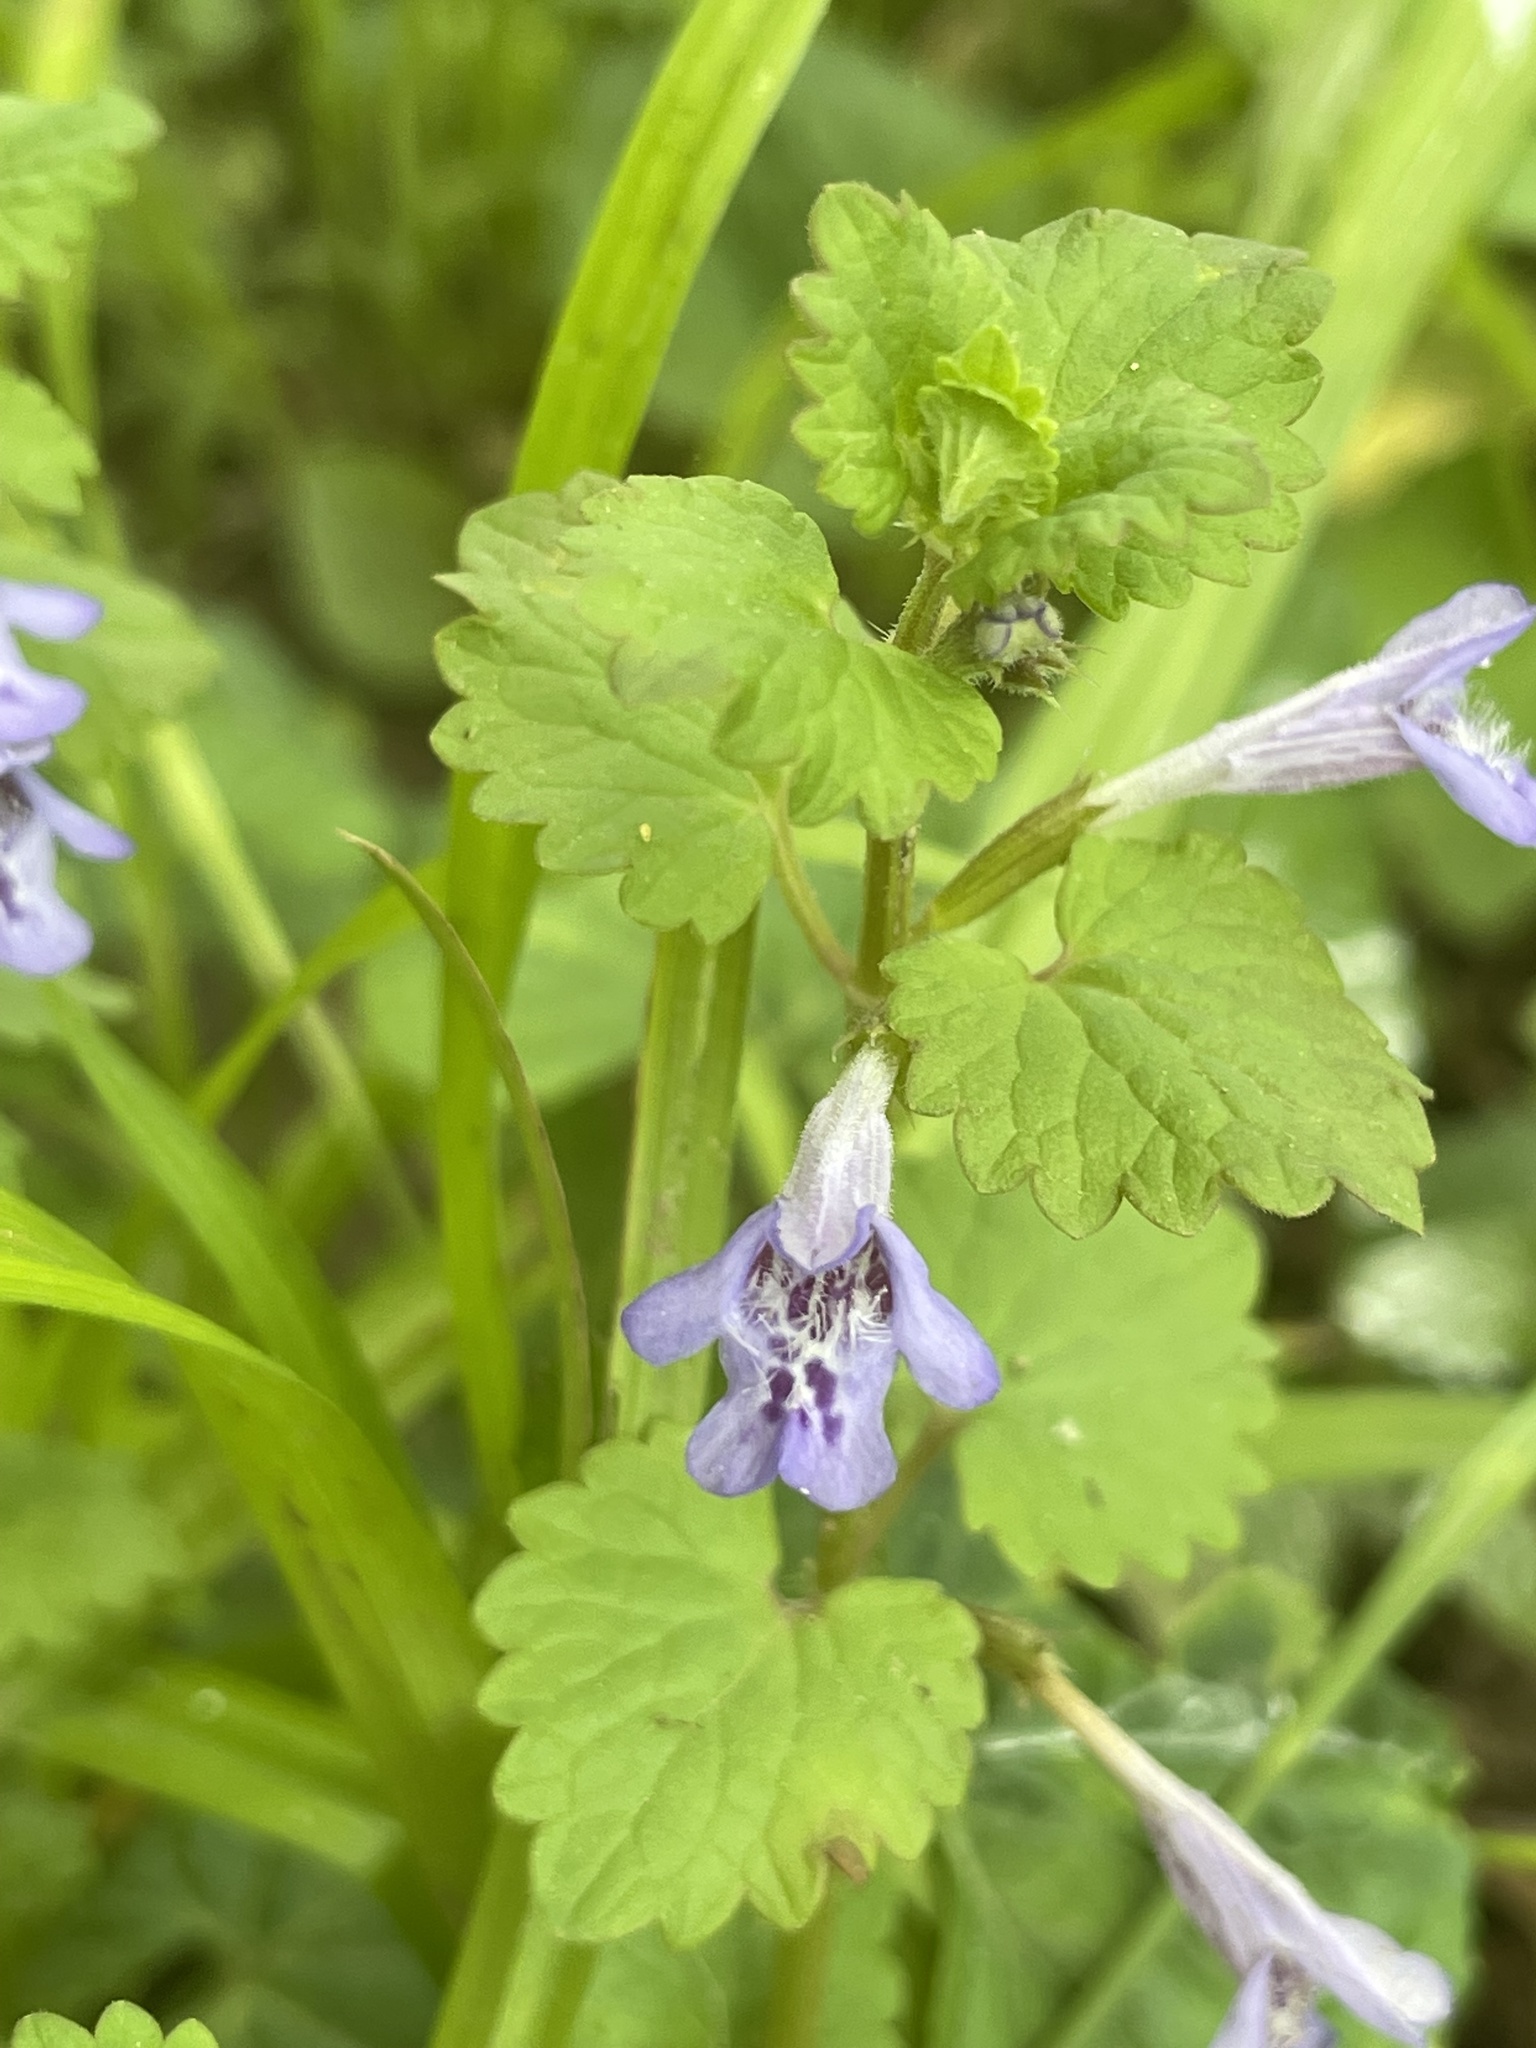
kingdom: Plantae
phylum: Tracheophyta
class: Magnoliopsida
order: Lamiales
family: Lamiaceae
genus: Glechoma
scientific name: Glechoma hederacea
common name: Ground ivy
